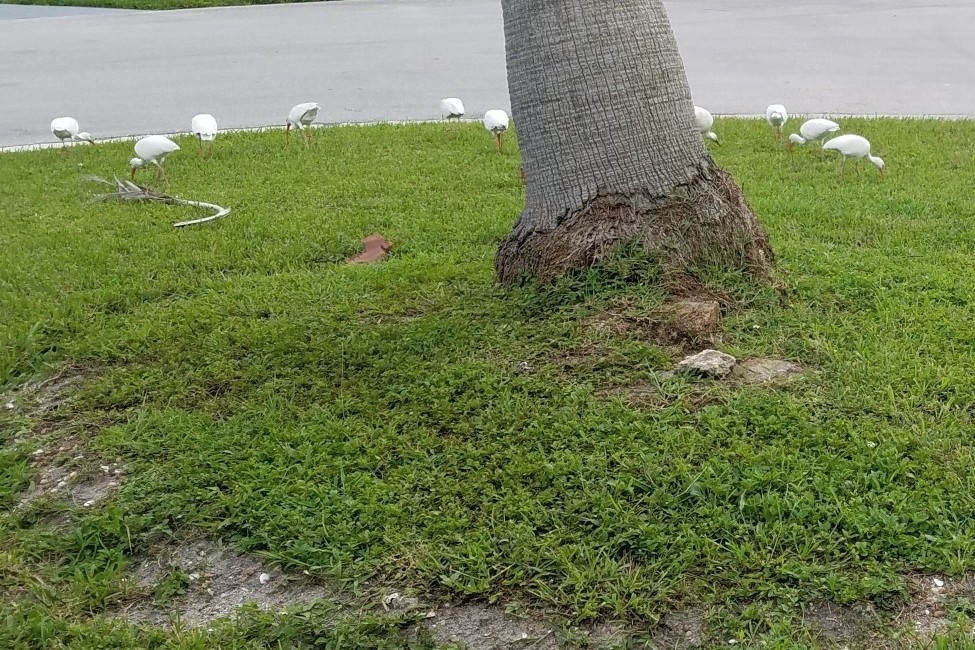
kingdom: Animalia
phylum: Chordata
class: Aves
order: Pelecaniformes
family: Threskiornithidae
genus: Eudocimus
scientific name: Eudocimus albus
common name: White ibis
